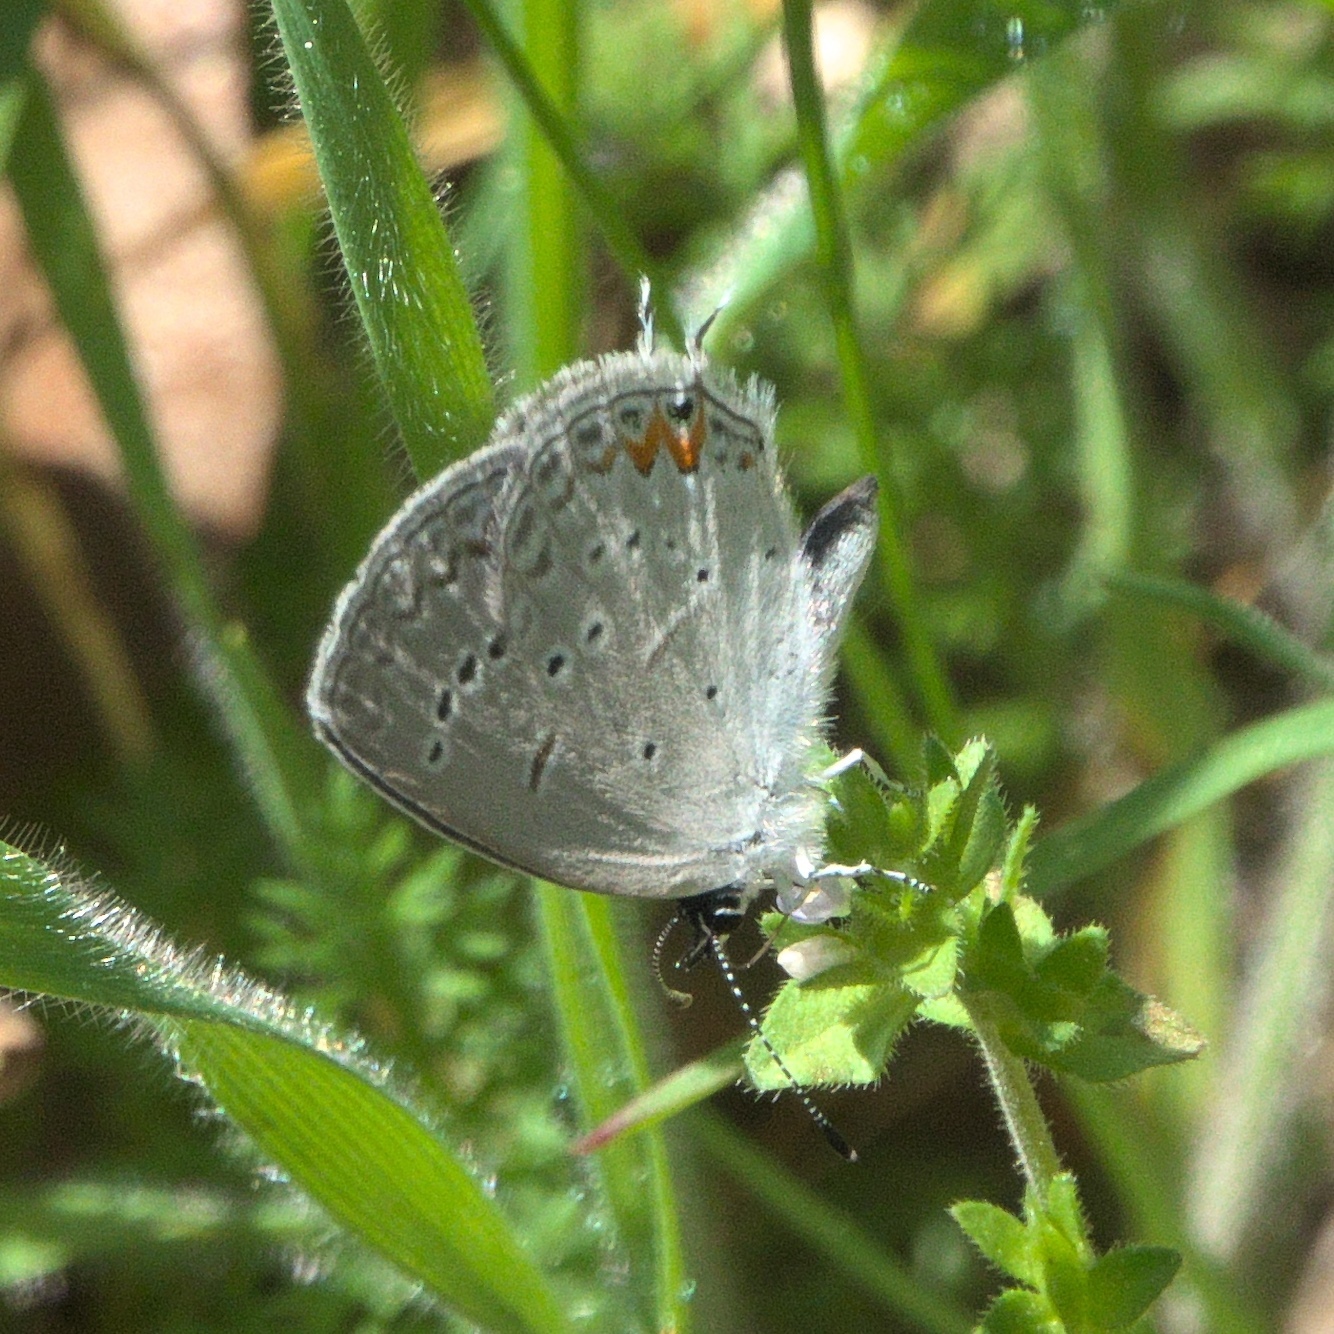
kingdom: Animalia
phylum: Arthropoda
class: Insecta
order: Lepidoptera
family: Lycaenidae
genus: Elkalyce
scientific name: Elkalyce comyntas
